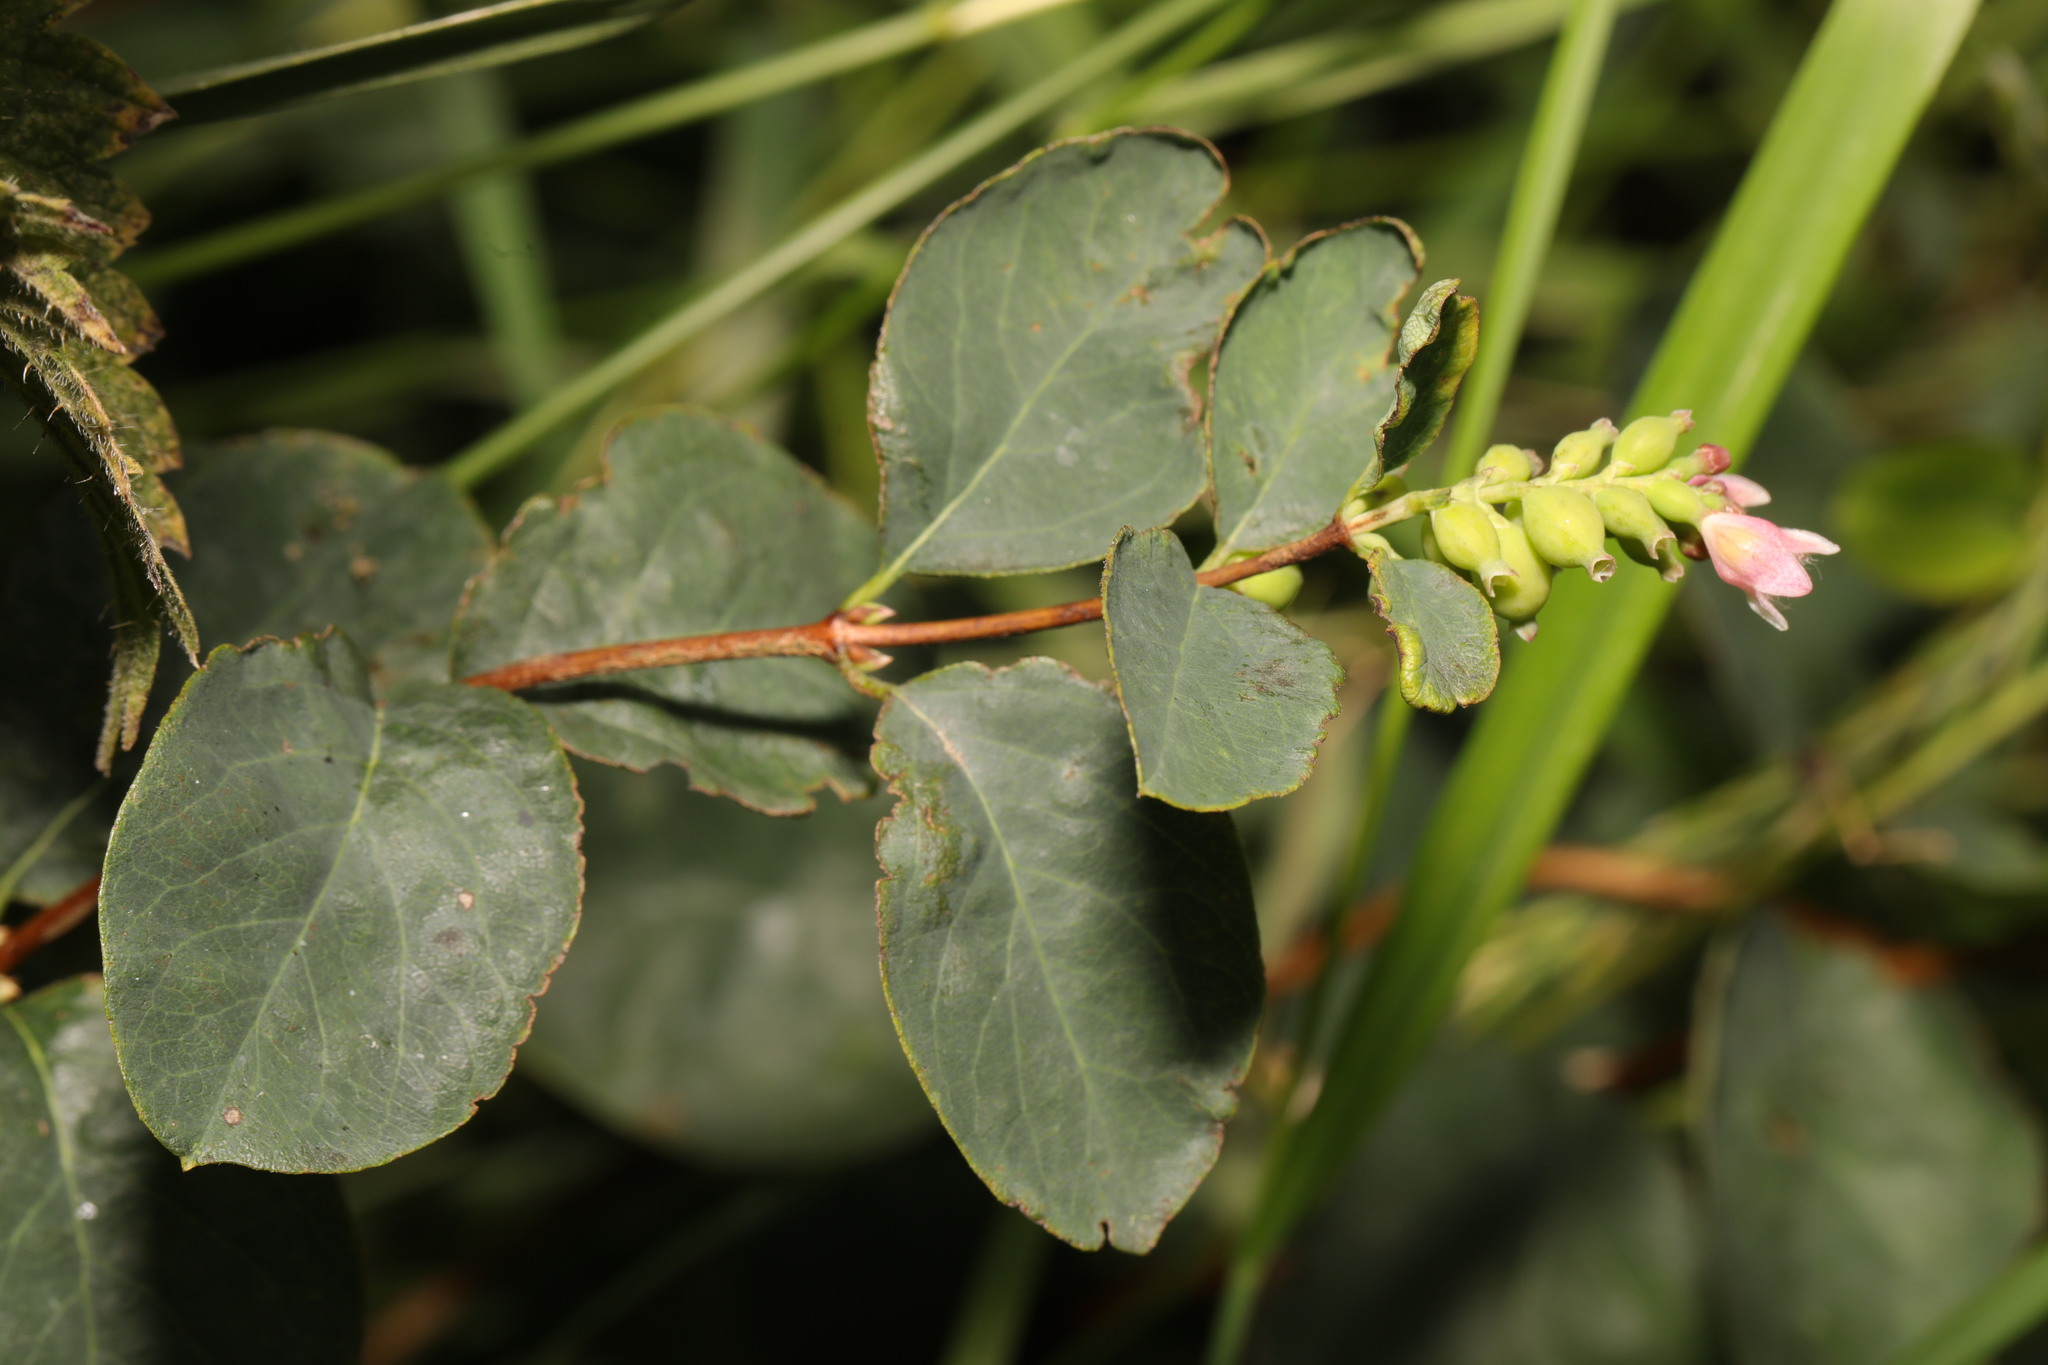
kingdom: Plantae
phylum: Tracheophyta
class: Magnoliopsida
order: Dipsacales
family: Caprifoliaceae
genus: Symphoricarpos
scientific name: Symphoricarpos albus
